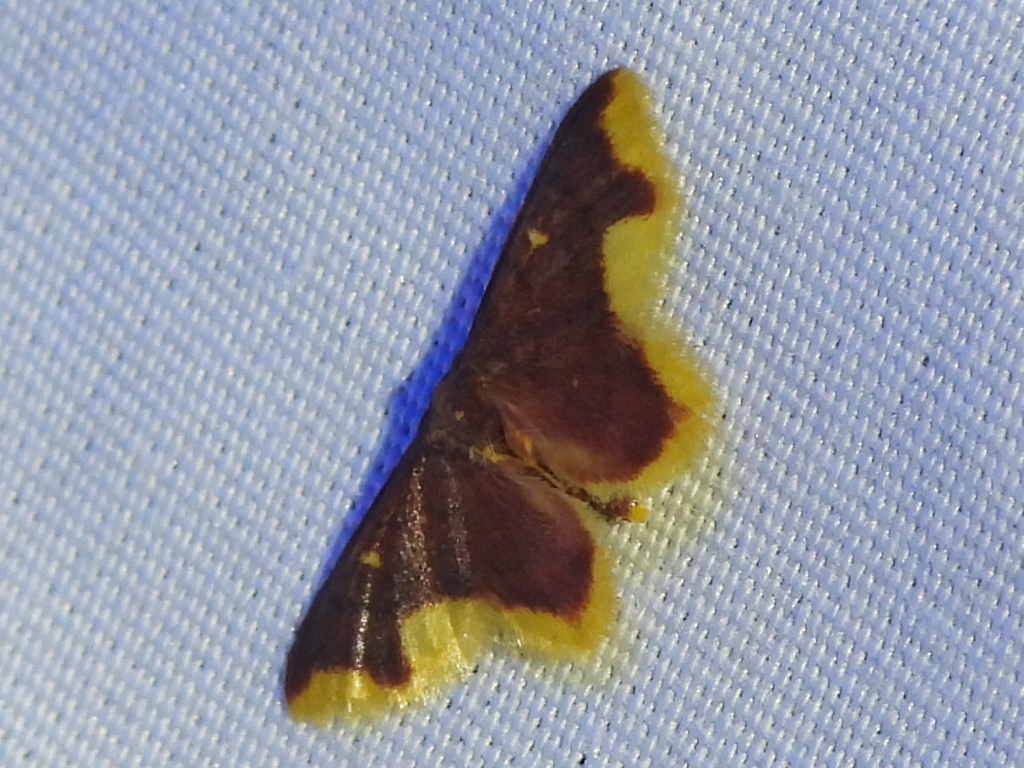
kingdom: Animalia
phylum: Arthropoda
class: Insecta
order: Lepidoptera
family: Geometridae
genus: Lophosis
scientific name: Lophosis labeculata
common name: Stained lophosis moth
